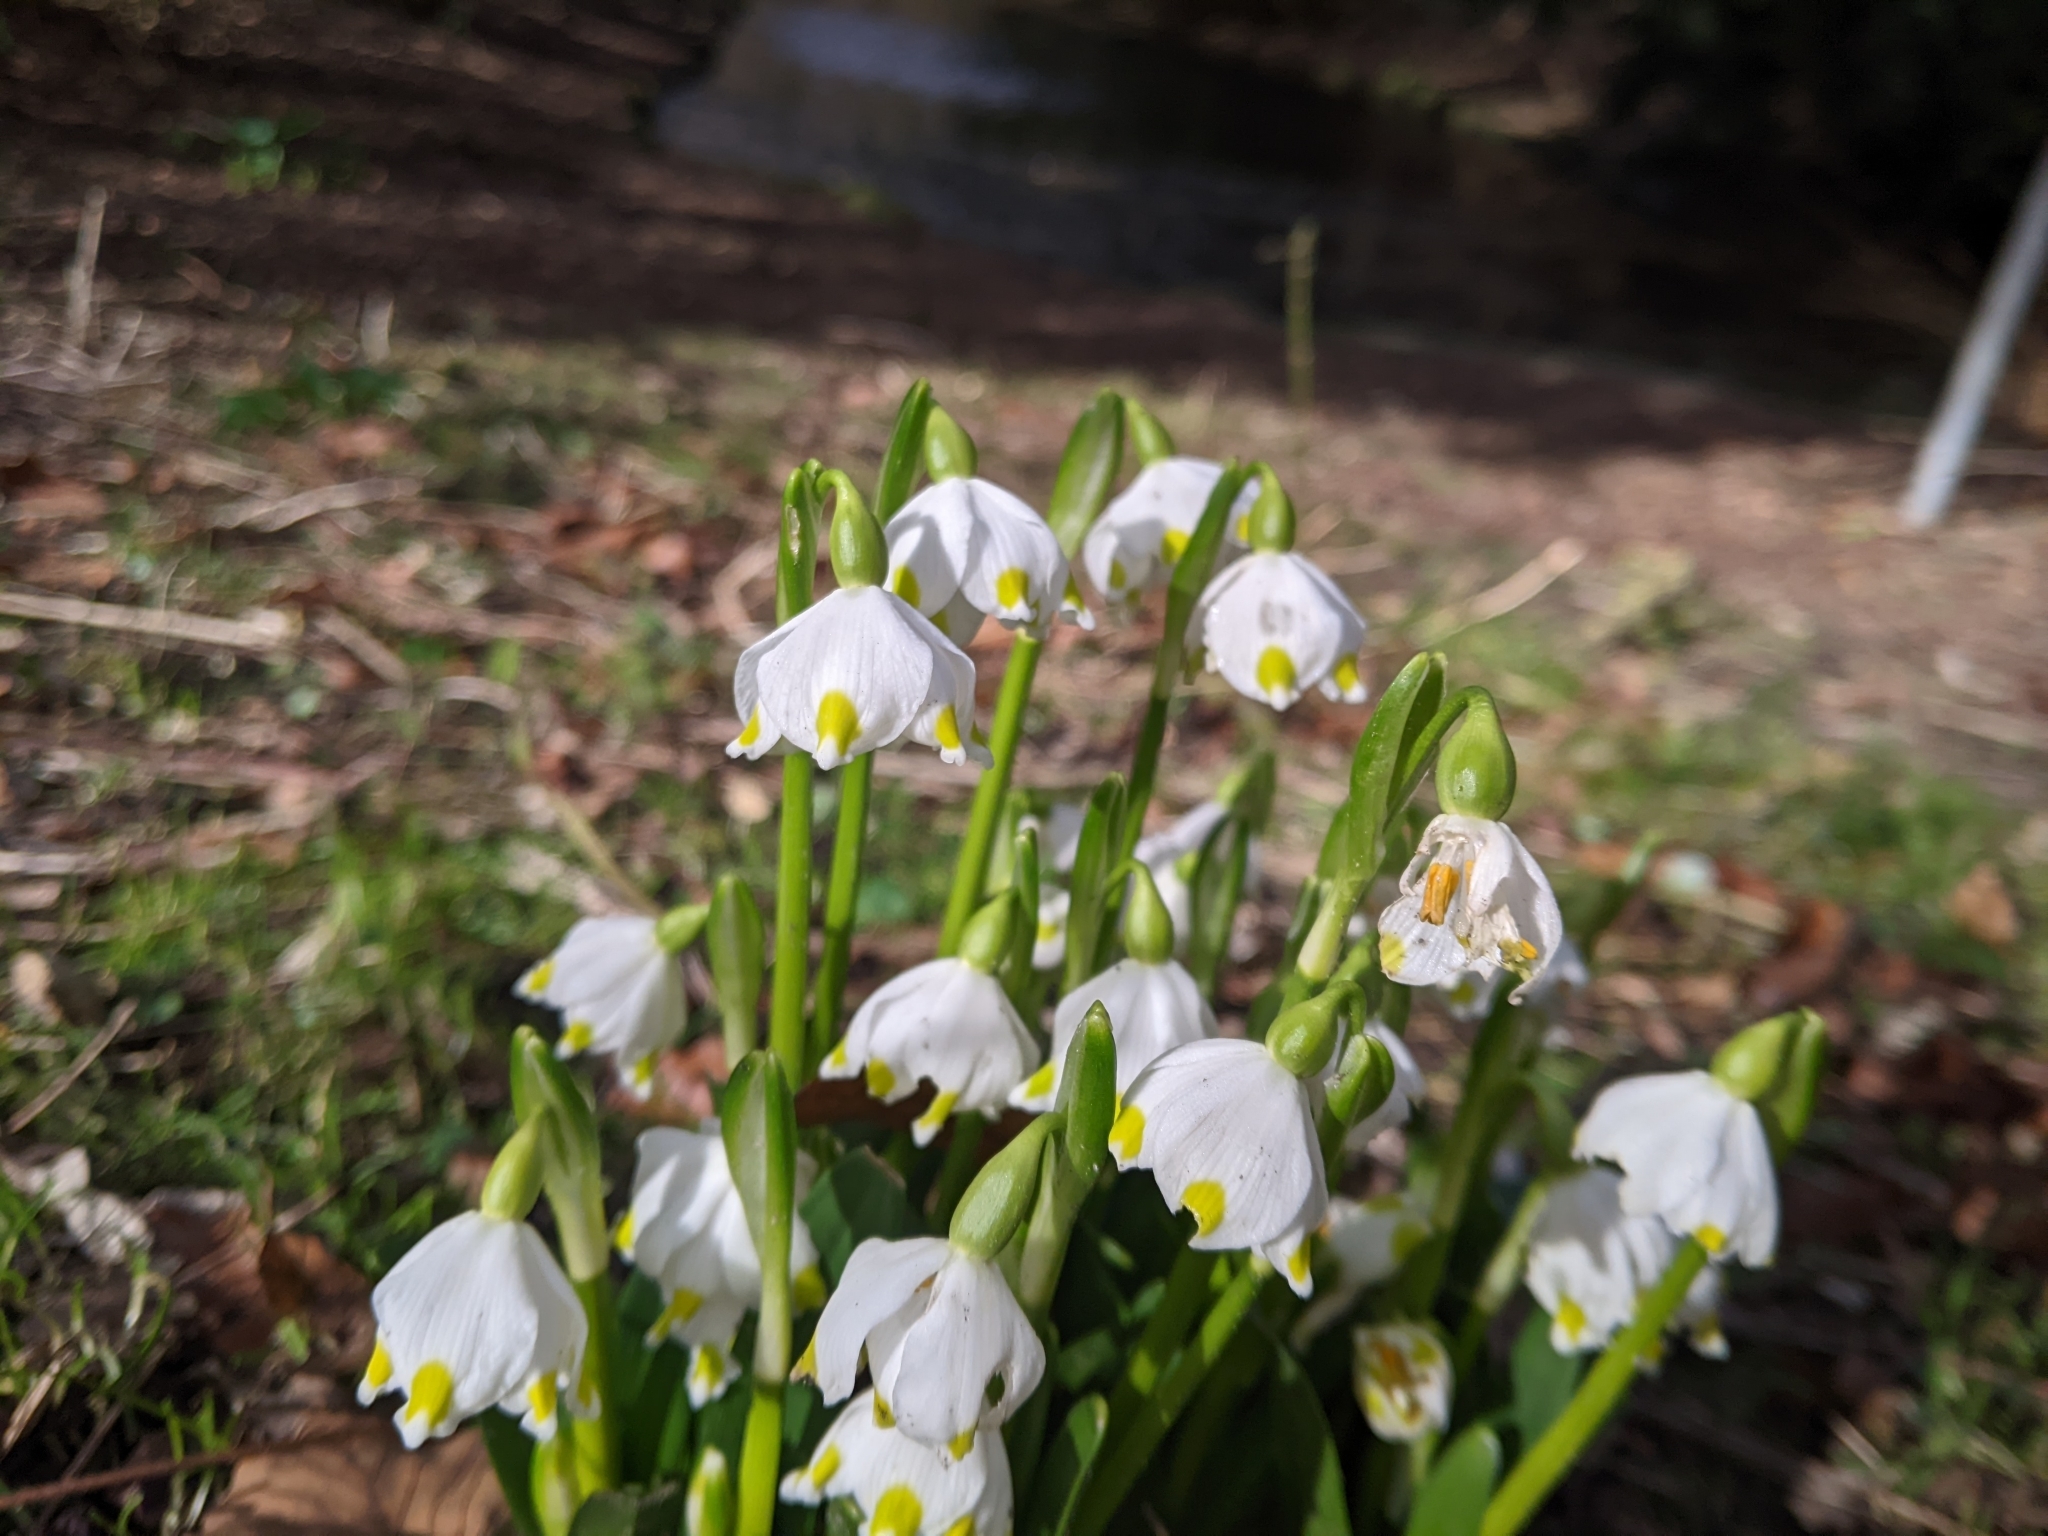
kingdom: Plantae
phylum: Tracheophyta
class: Liliopsida
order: Asparagales
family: Amaryllidaceae
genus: Leucojum
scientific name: Leucojum vernum
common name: Spring snowflake
